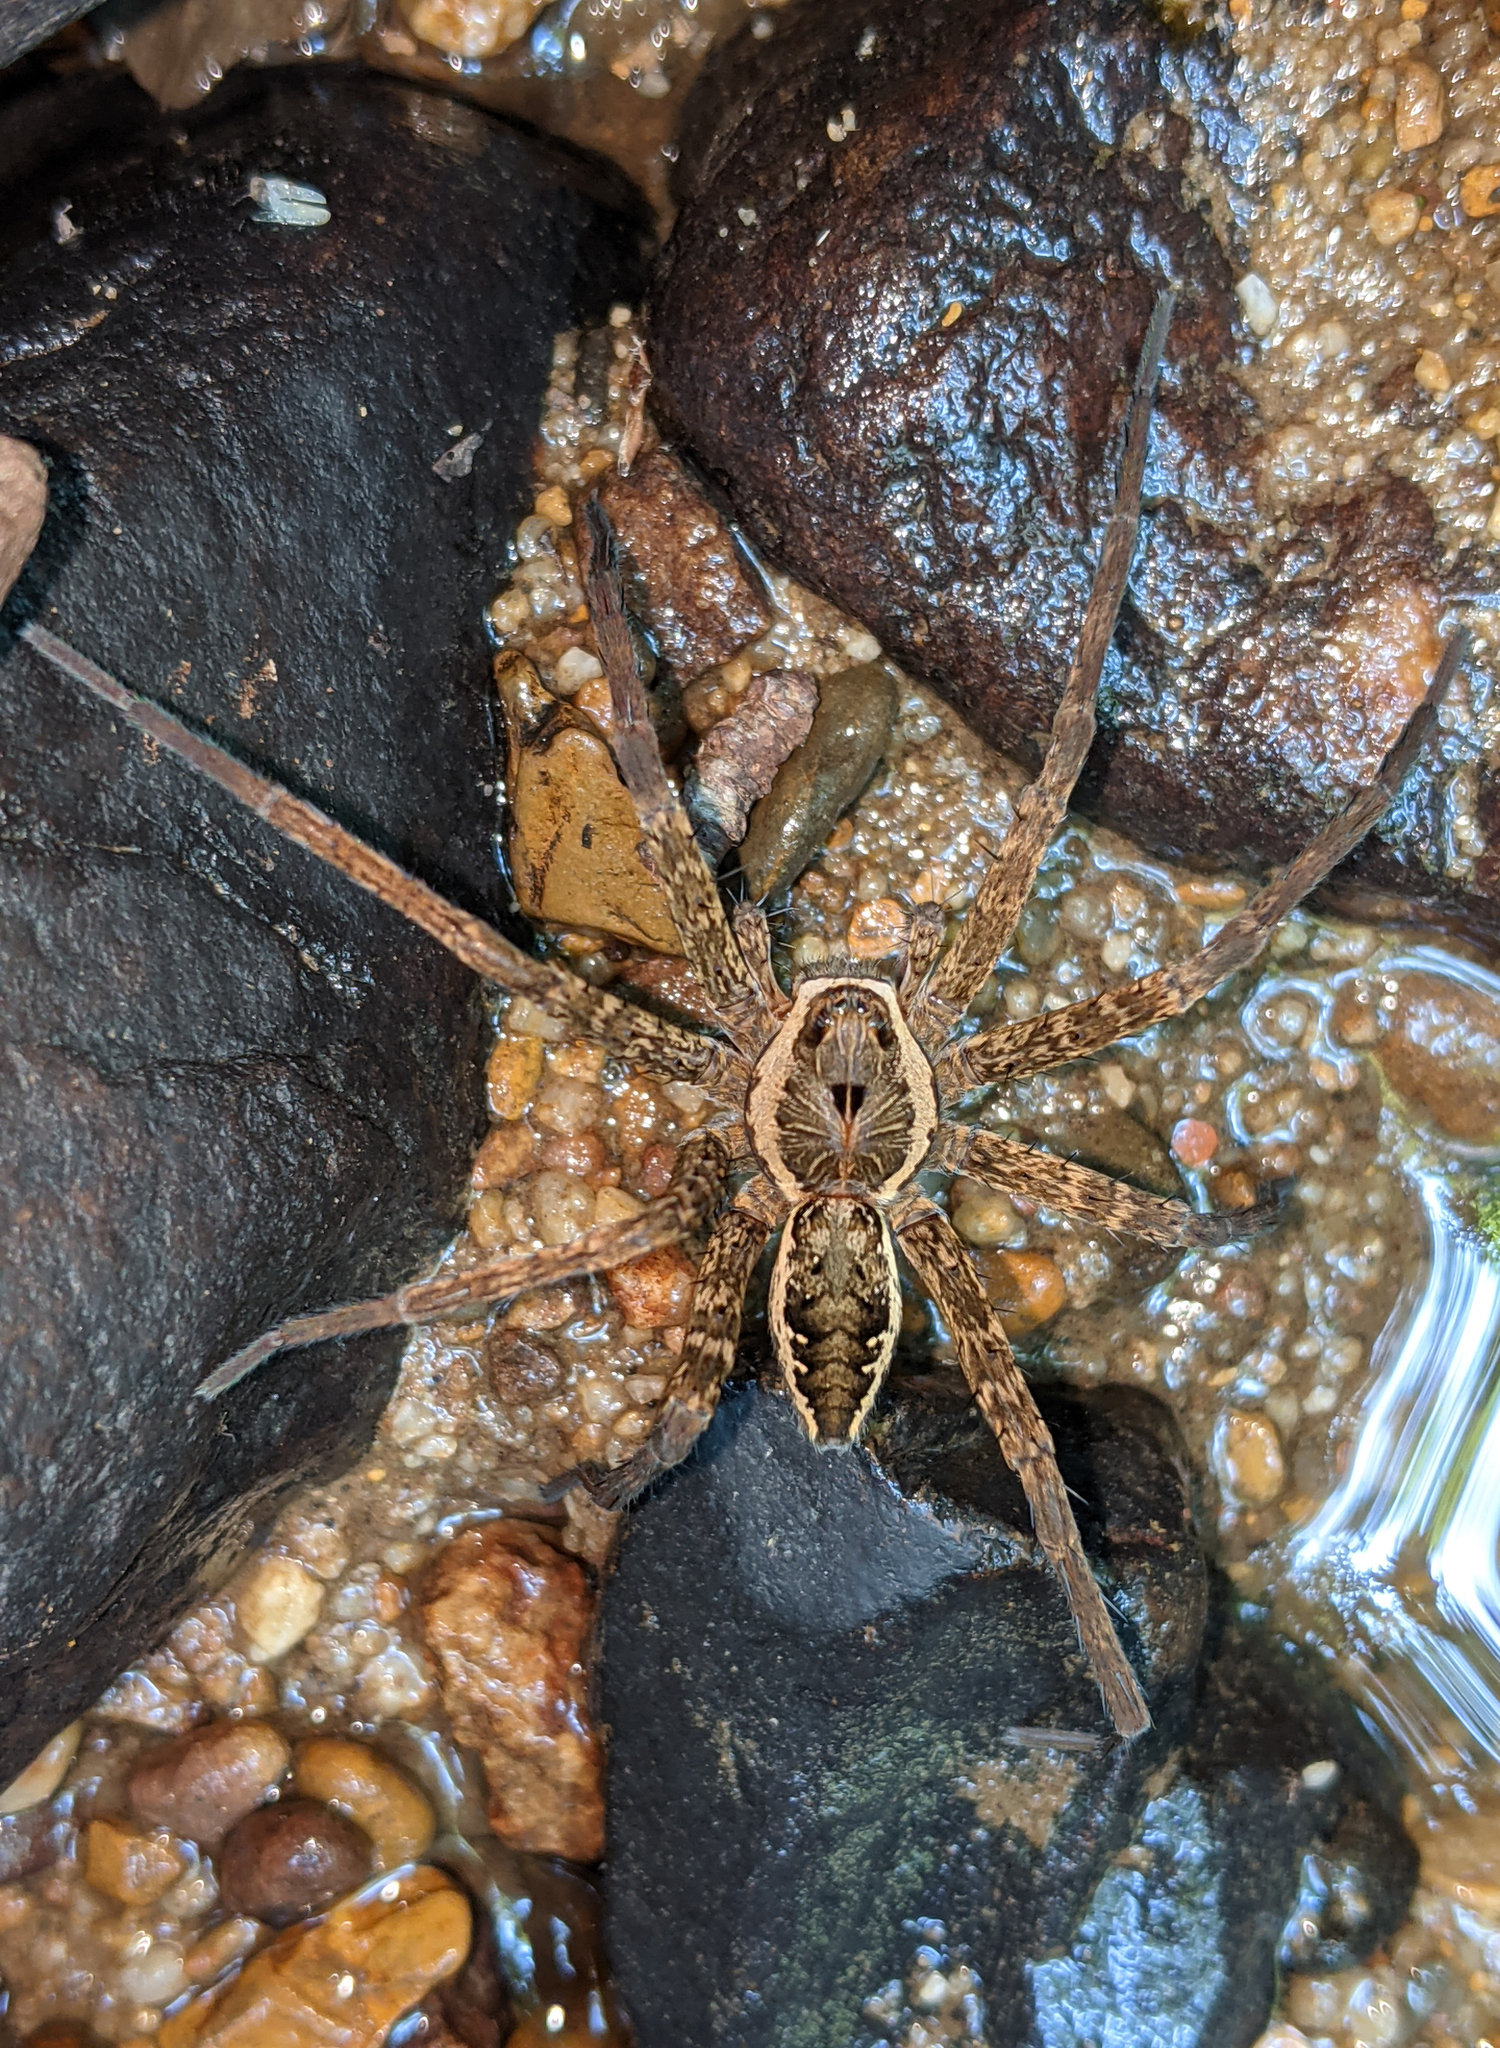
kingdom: Animalia
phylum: Arthropoda
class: Arachnida
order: Araneae
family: Pisauridae
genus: Dolomedes
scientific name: Dolomedes vittatus
